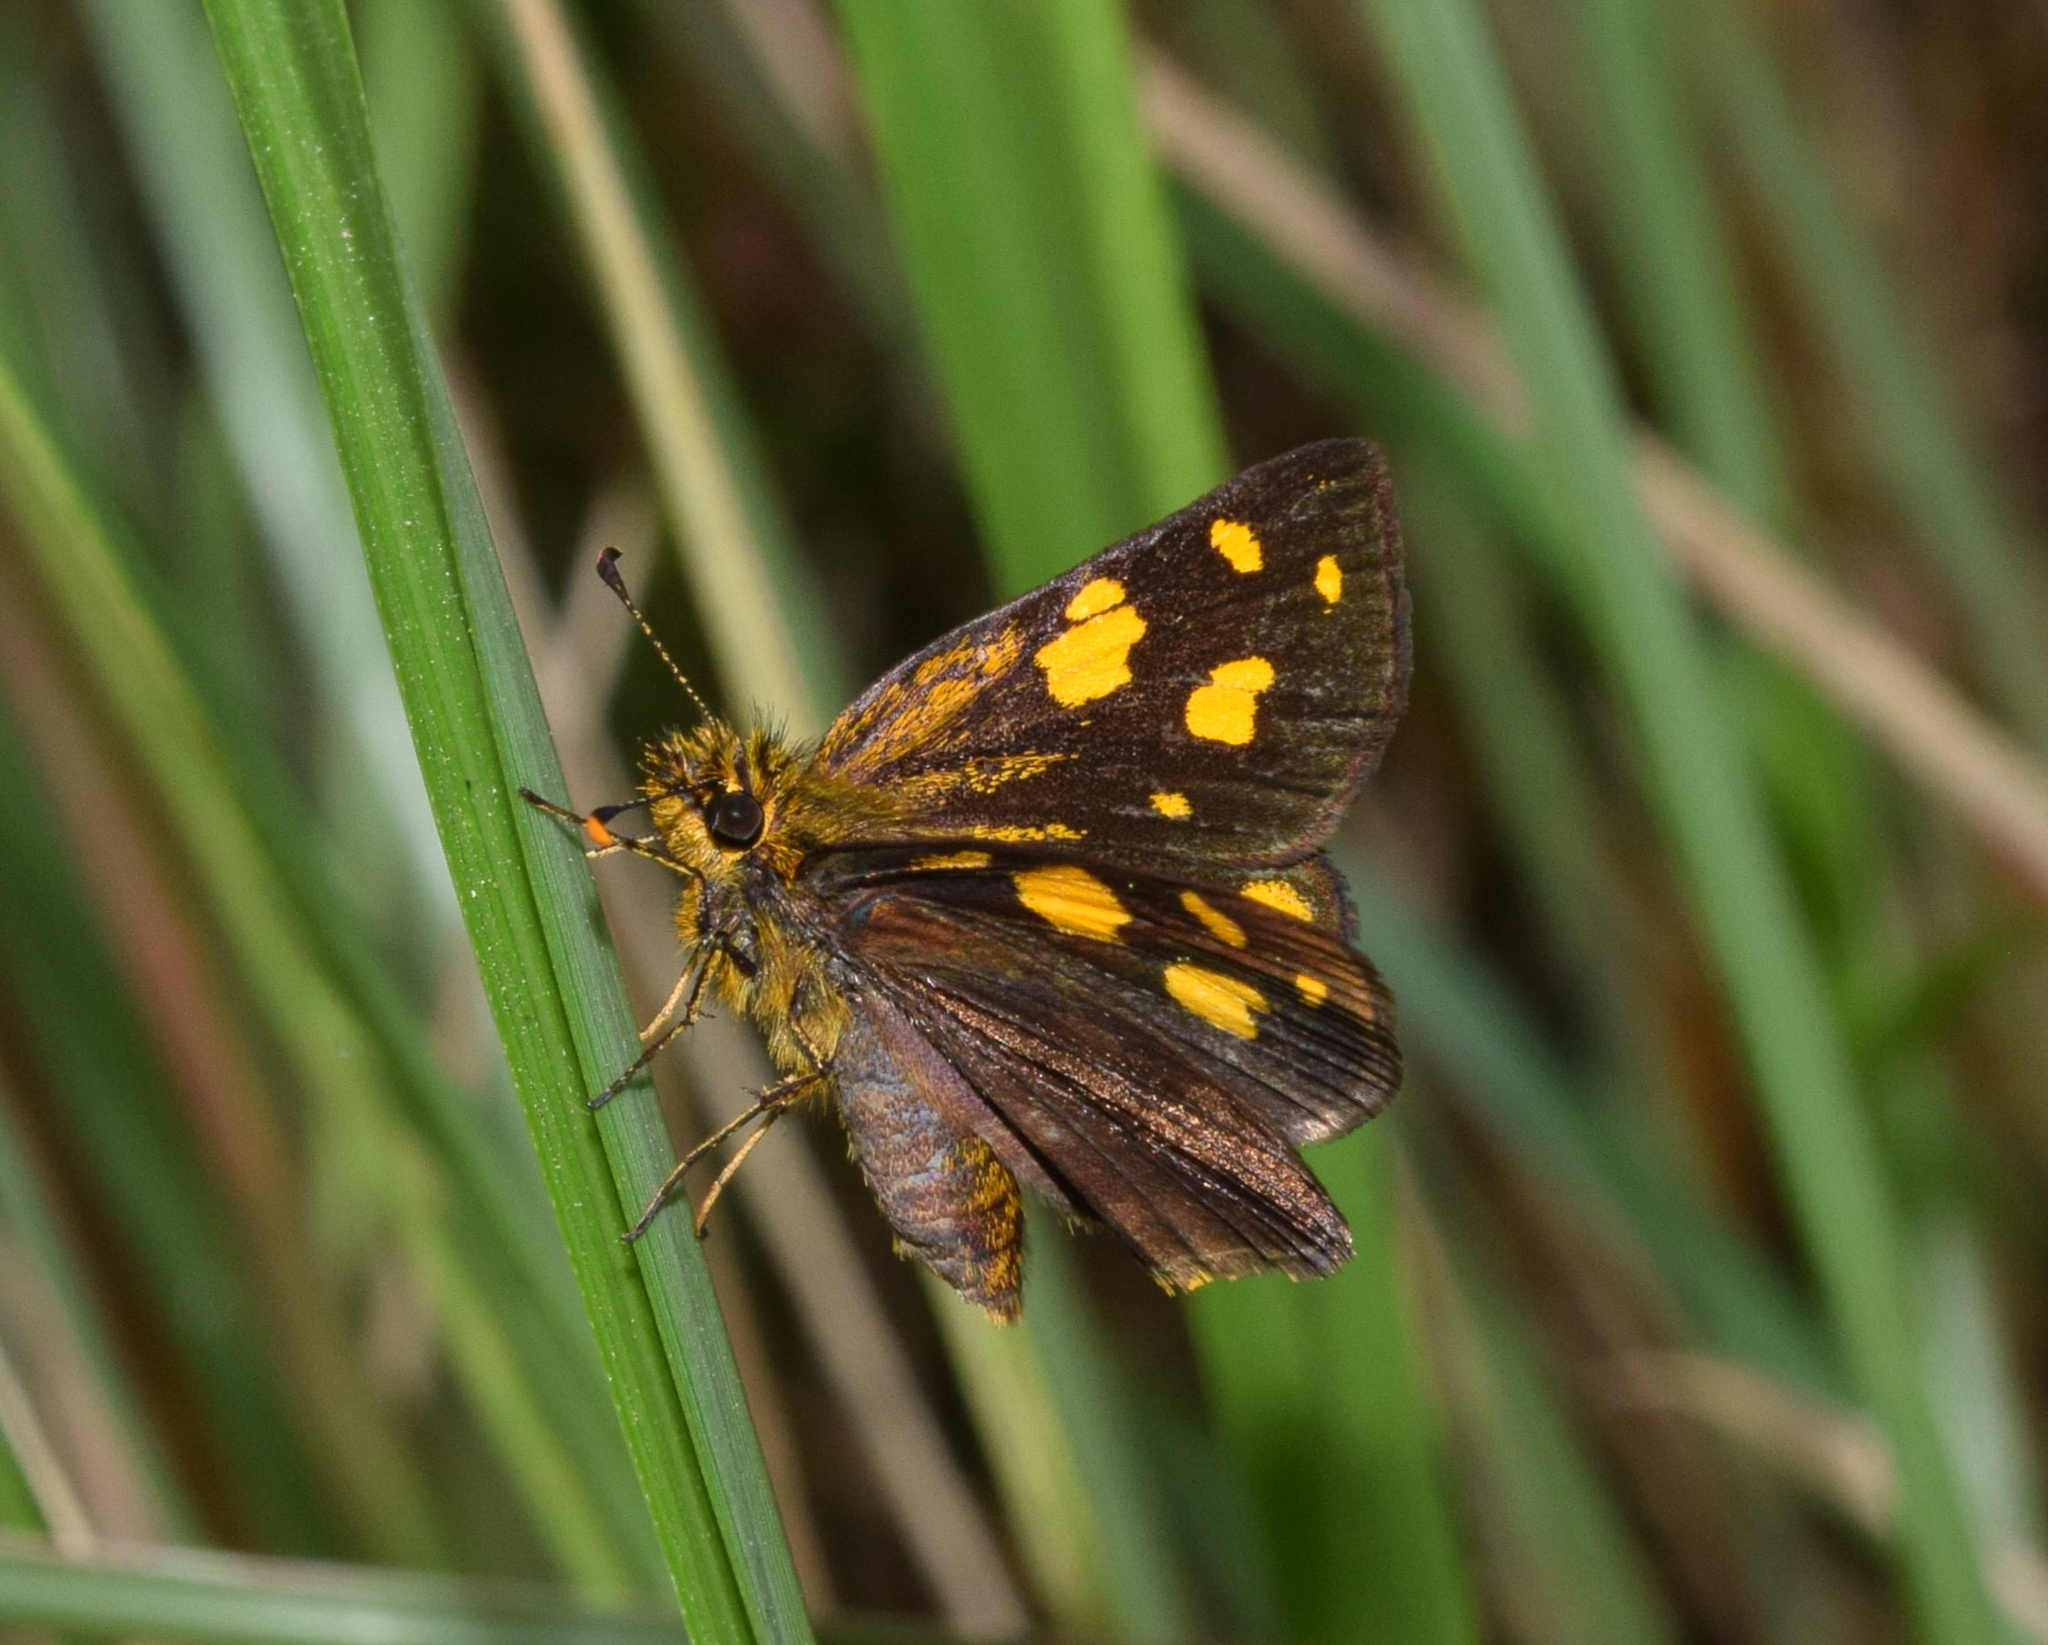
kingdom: Animalia
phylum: Arthropoda
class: Insecta
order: Lepidoptera
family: Hesperiidae
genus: Metisella
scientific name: Metisella metis
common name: Western gold-spotted sylph
